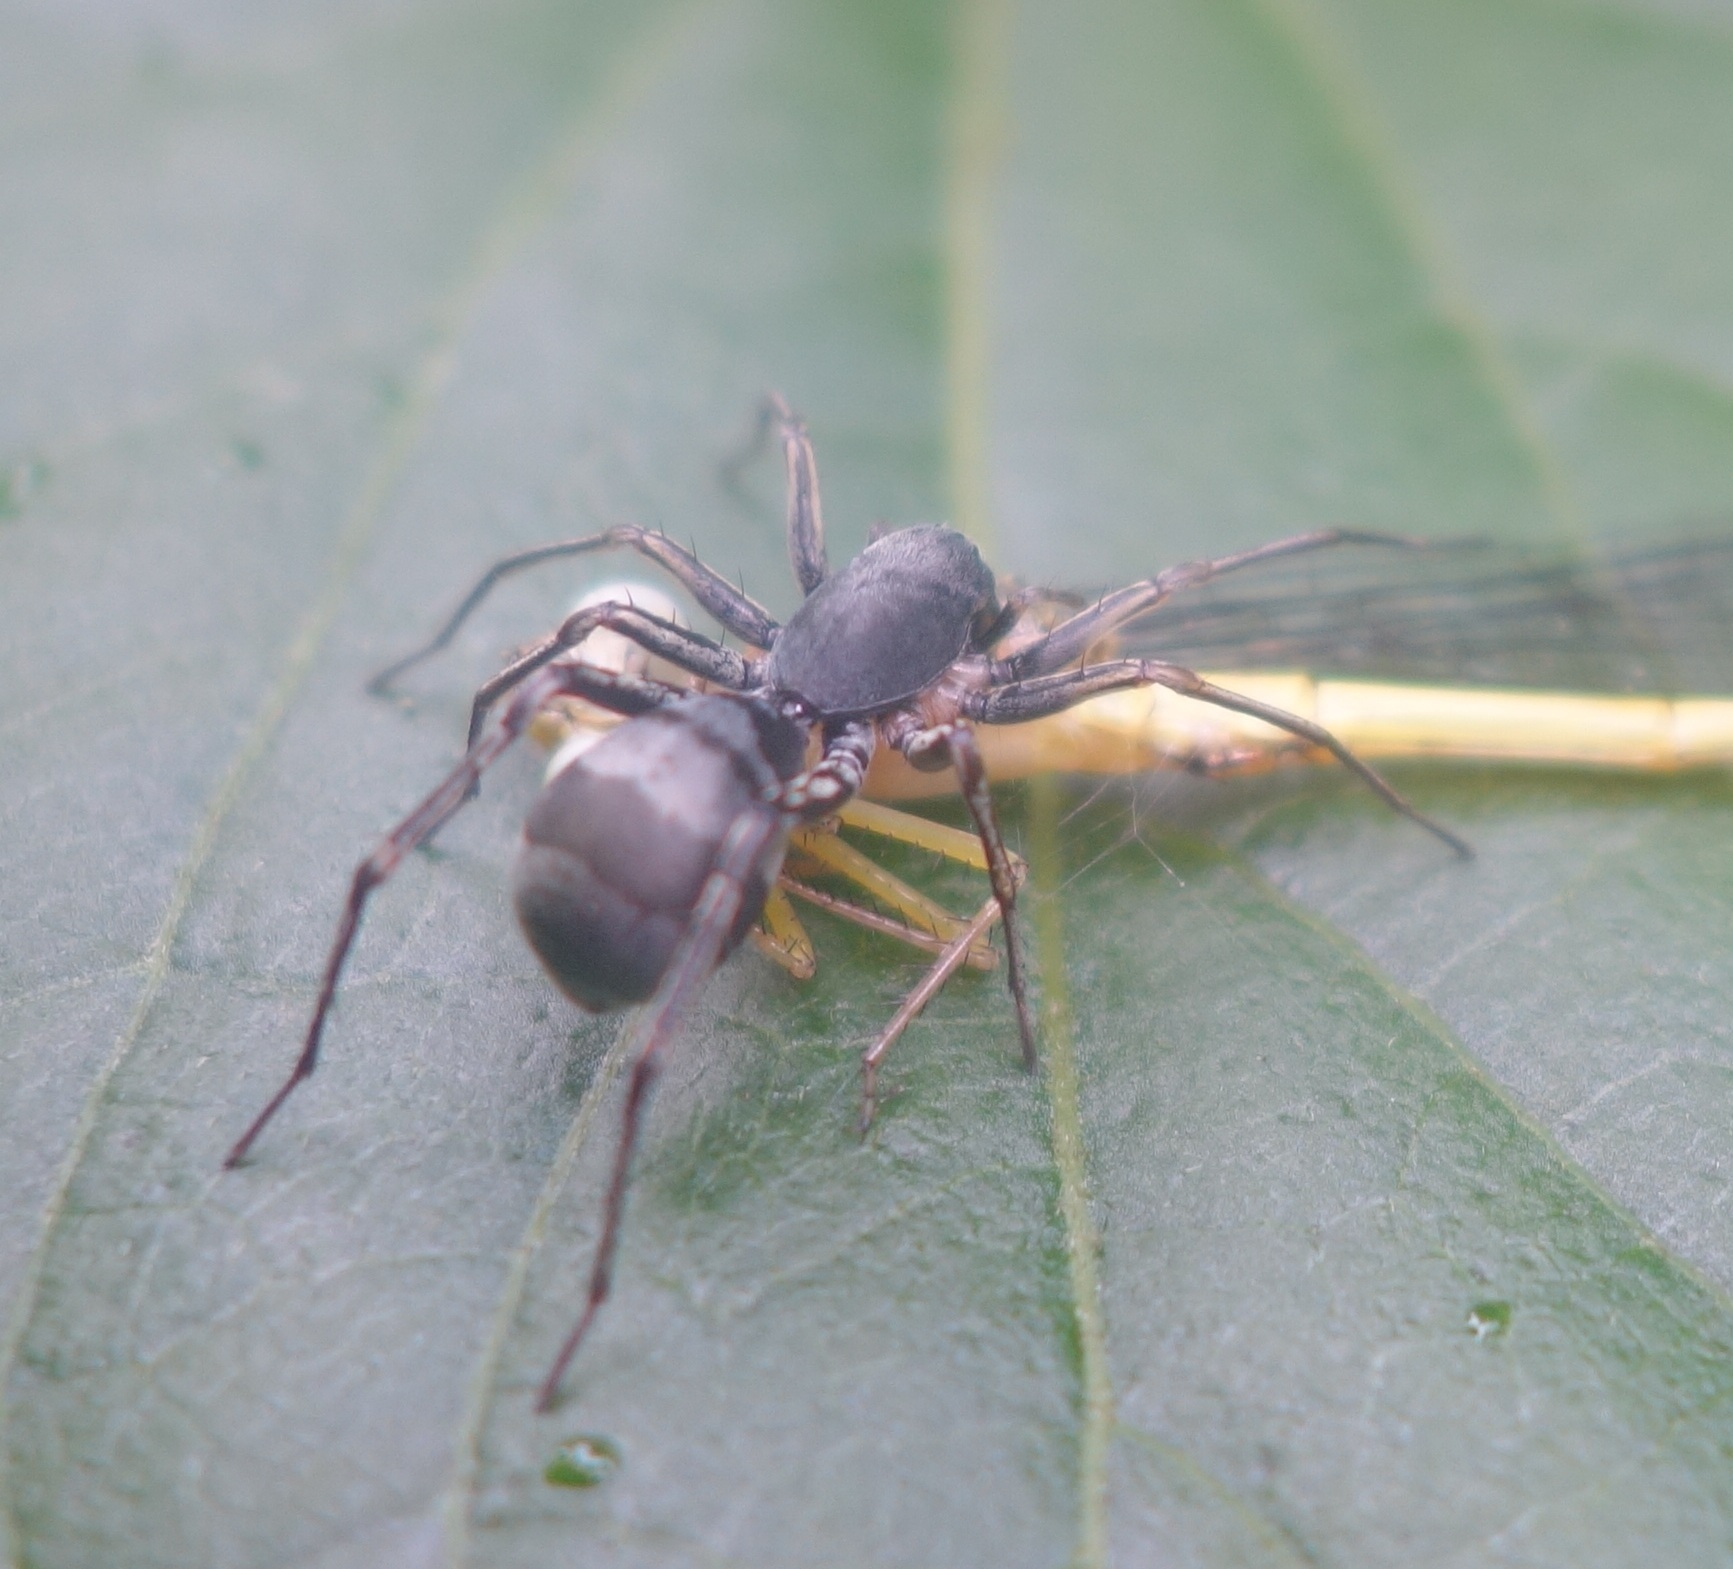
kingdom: Animalia
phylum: Arthropoda
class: Arachnida
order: Araneae
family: Corinnidae
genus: Corinnomma
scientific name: Corinnomma severum
